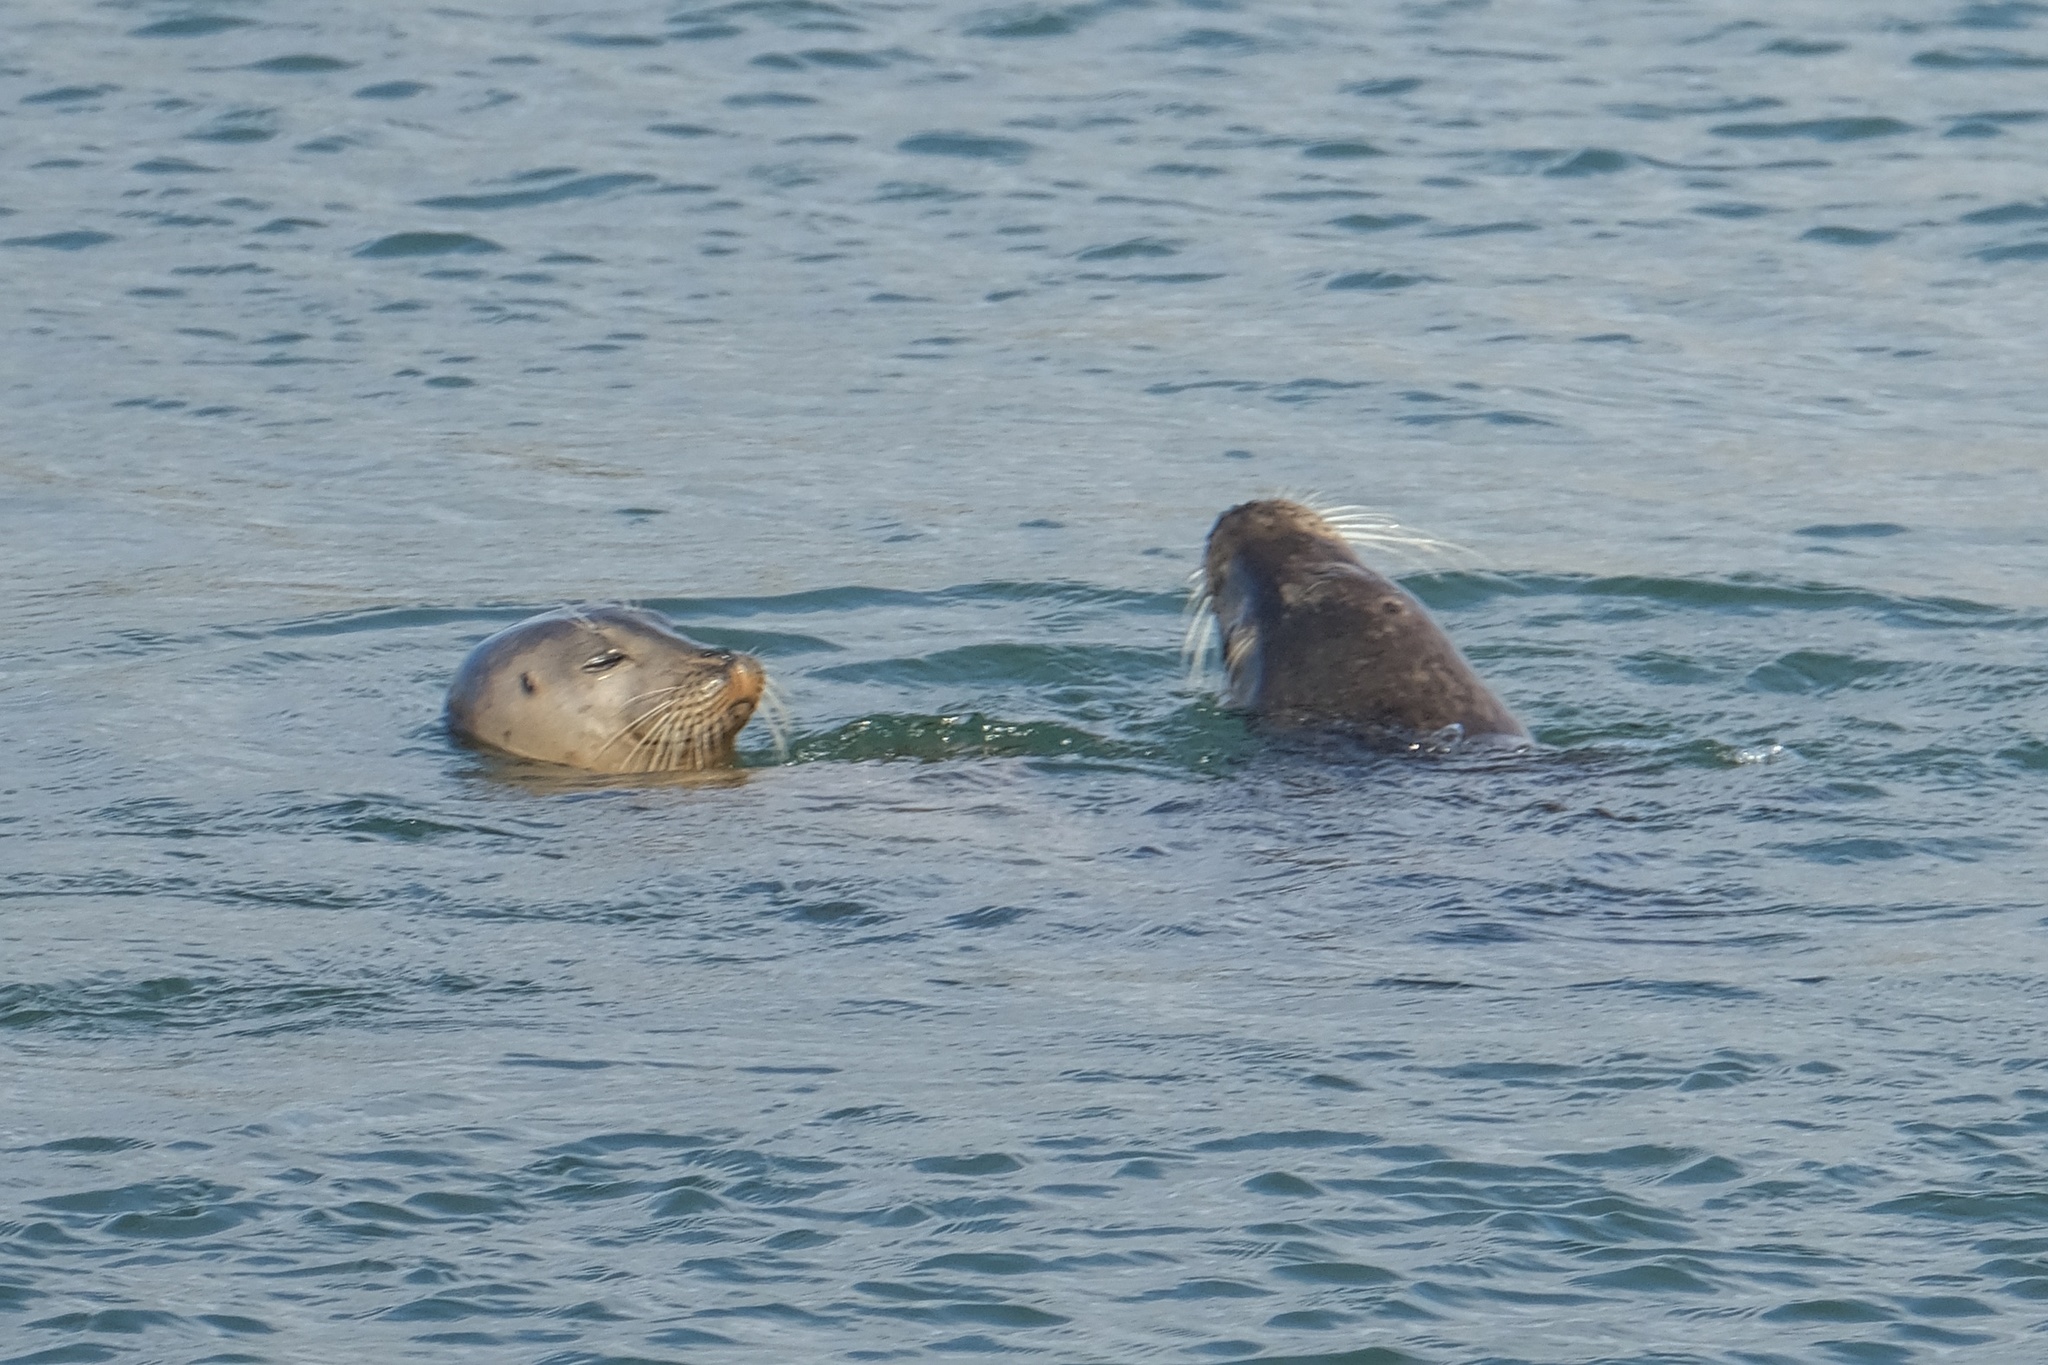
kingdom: Animalia
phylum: Chordata
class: Mammalia
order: Carnivora
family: Phocidae
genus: Phoca
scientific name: Phoca vitulina
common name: Harbor seal
